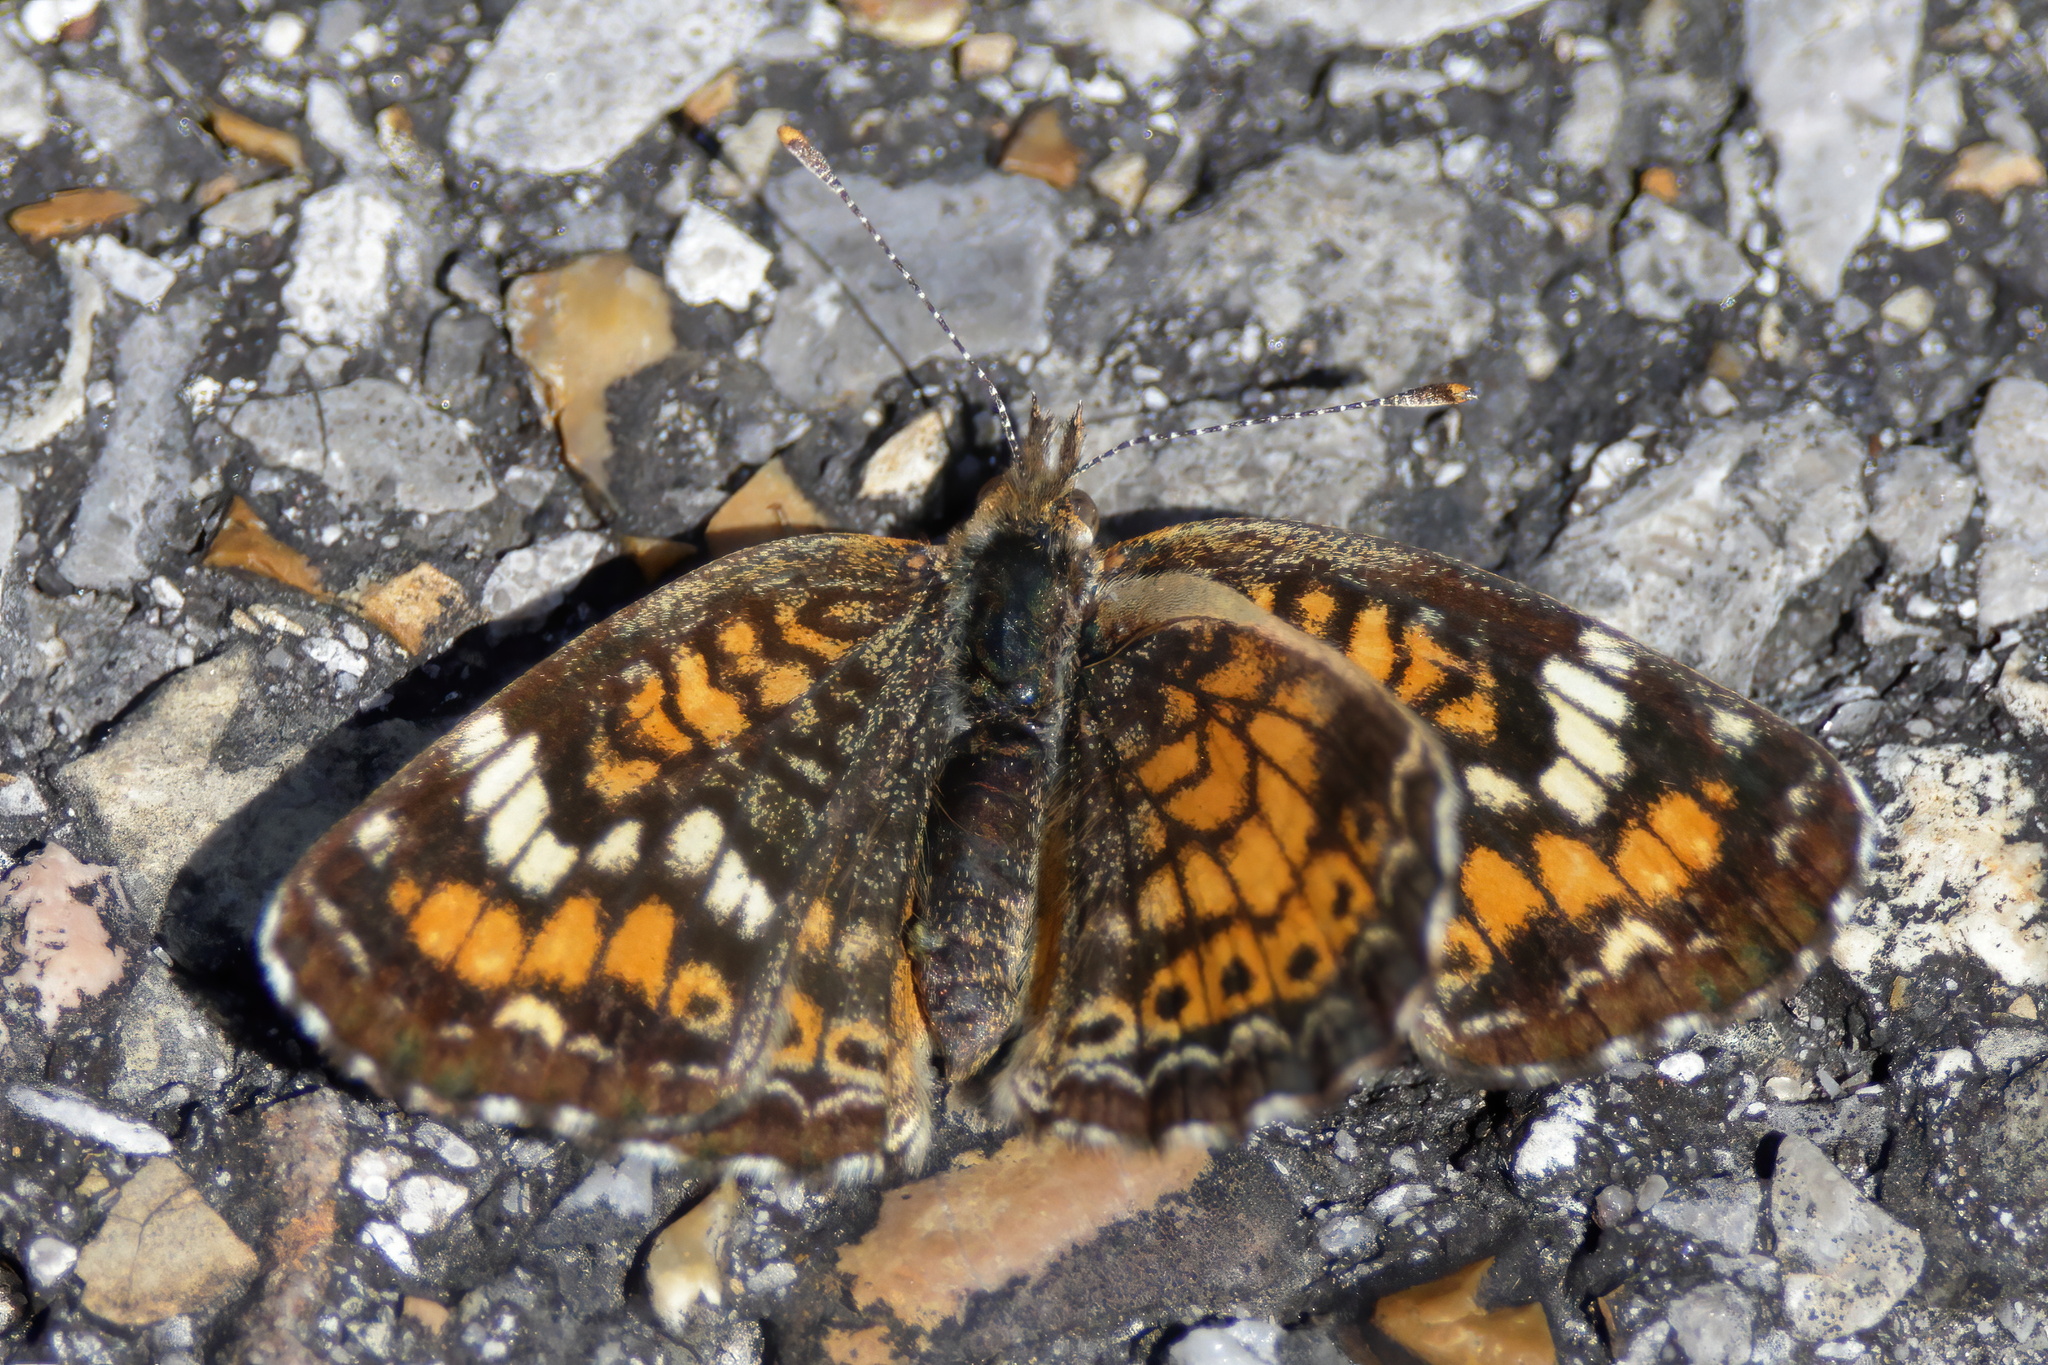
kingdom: Animalia
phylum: Arthropoda
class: Insecta
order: Lepidoptera
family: Nymphalidae
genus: Phyciodes
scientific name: Phyciodes phaon
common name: Phaon crescent
